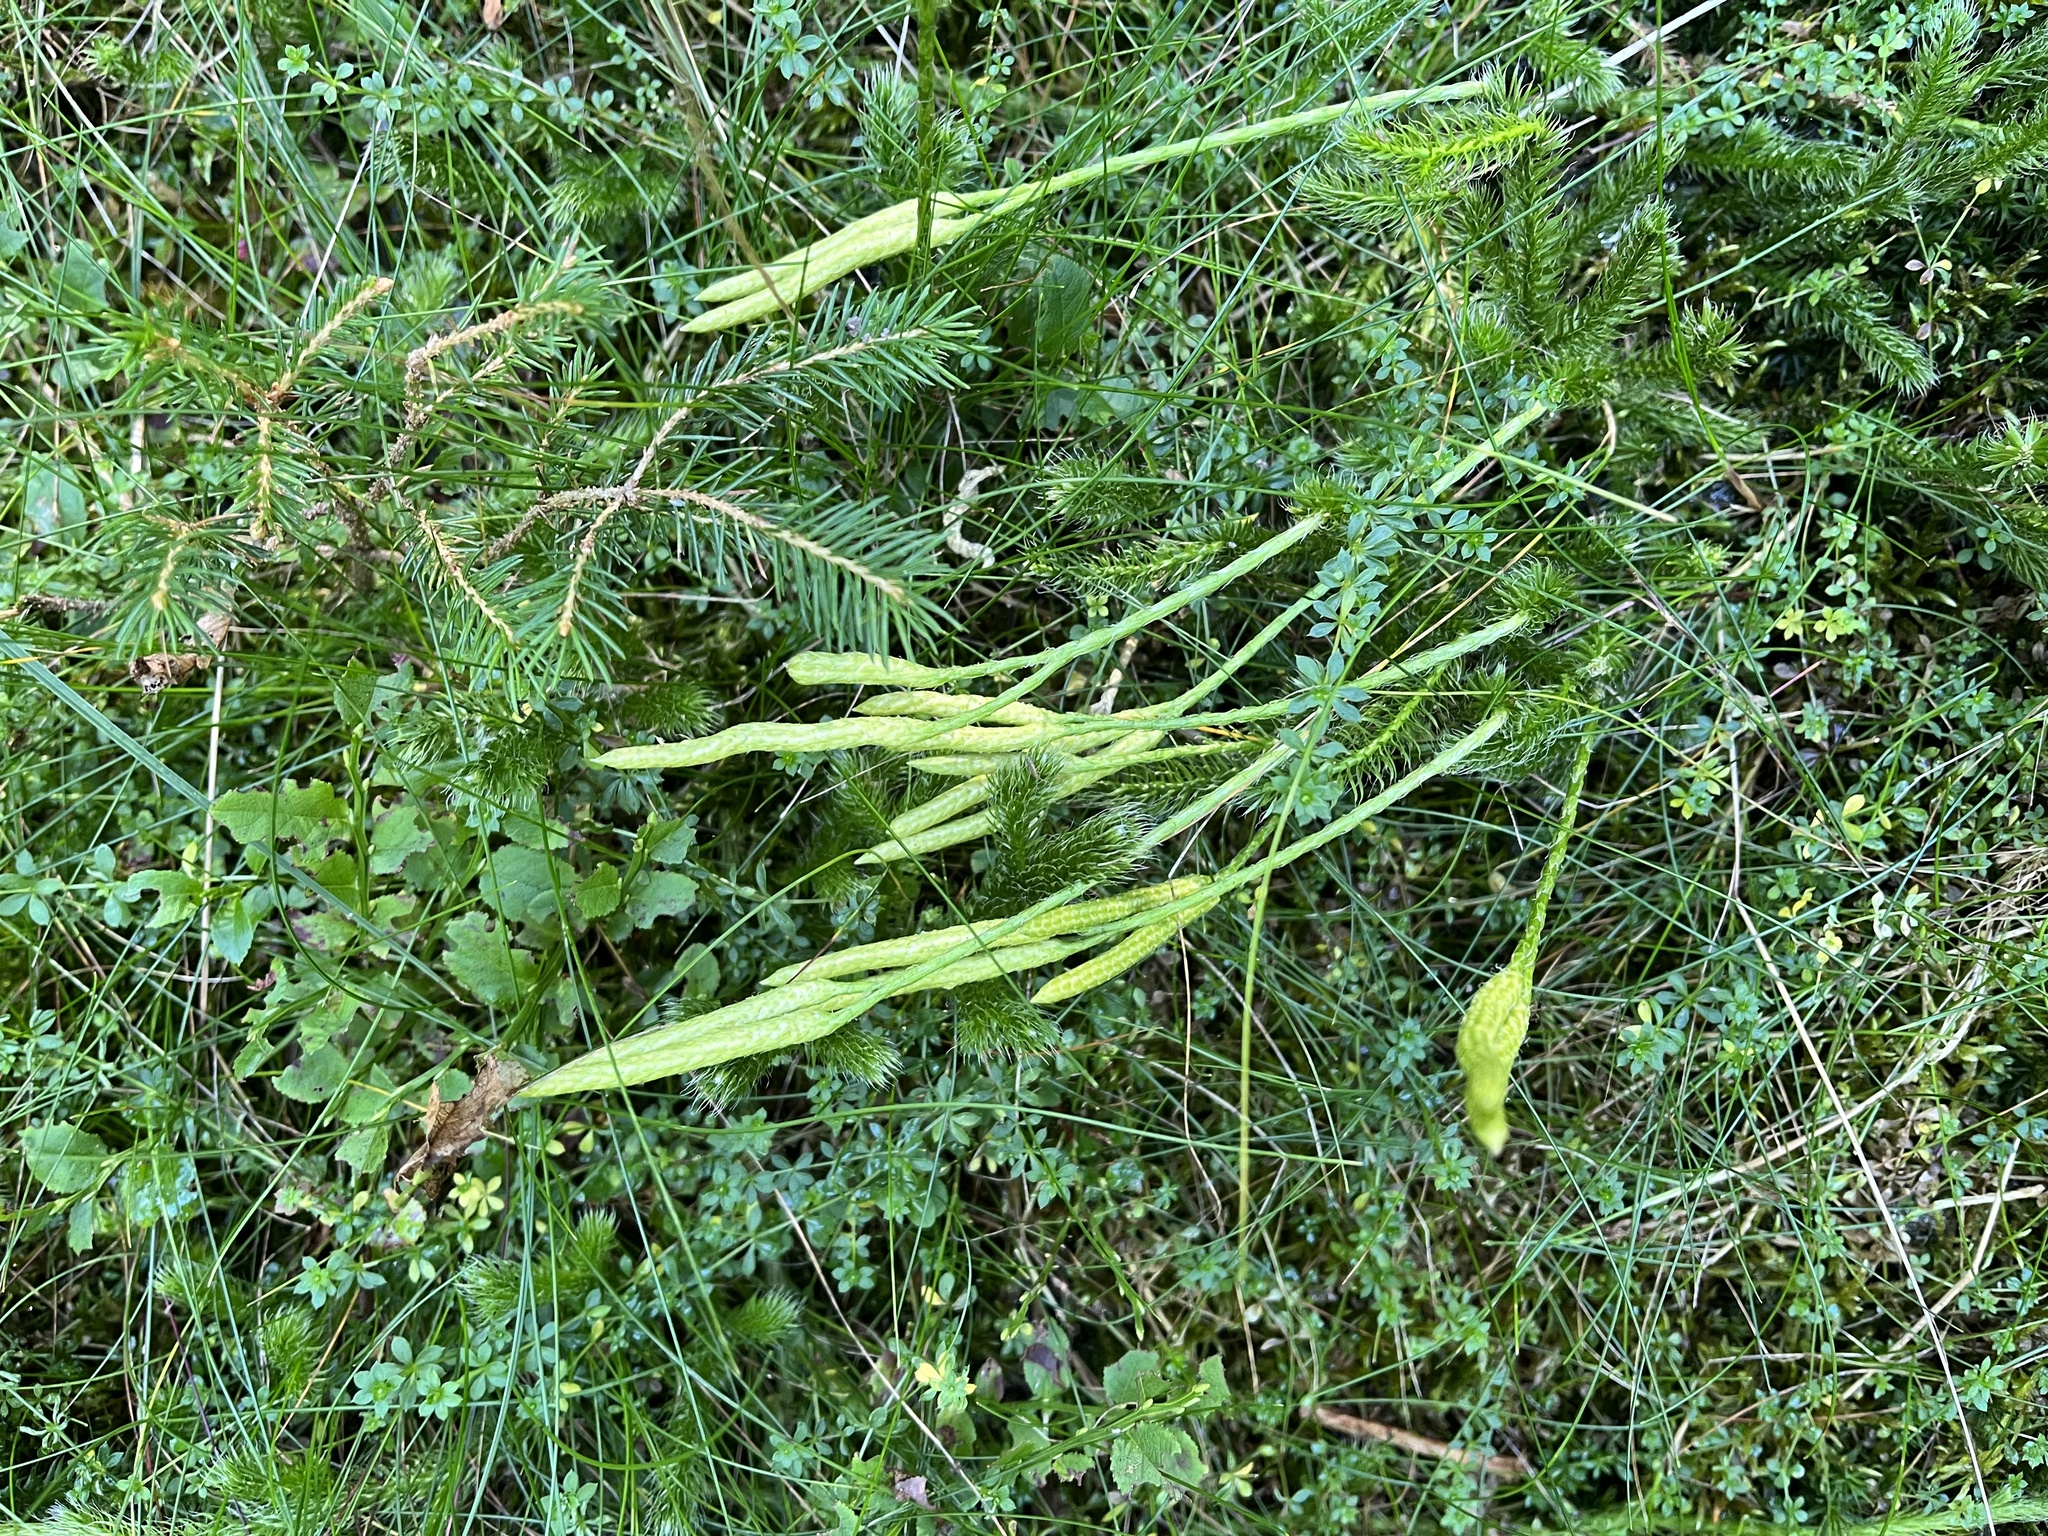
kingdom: Plantae
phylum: Tracheophyta
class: Lycopodiopsida
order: Lycopodiales
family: Lycopodiaceae
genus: Lycopodium
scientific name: Lycopodium clavatum
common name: Stag's-horn clubmoss
